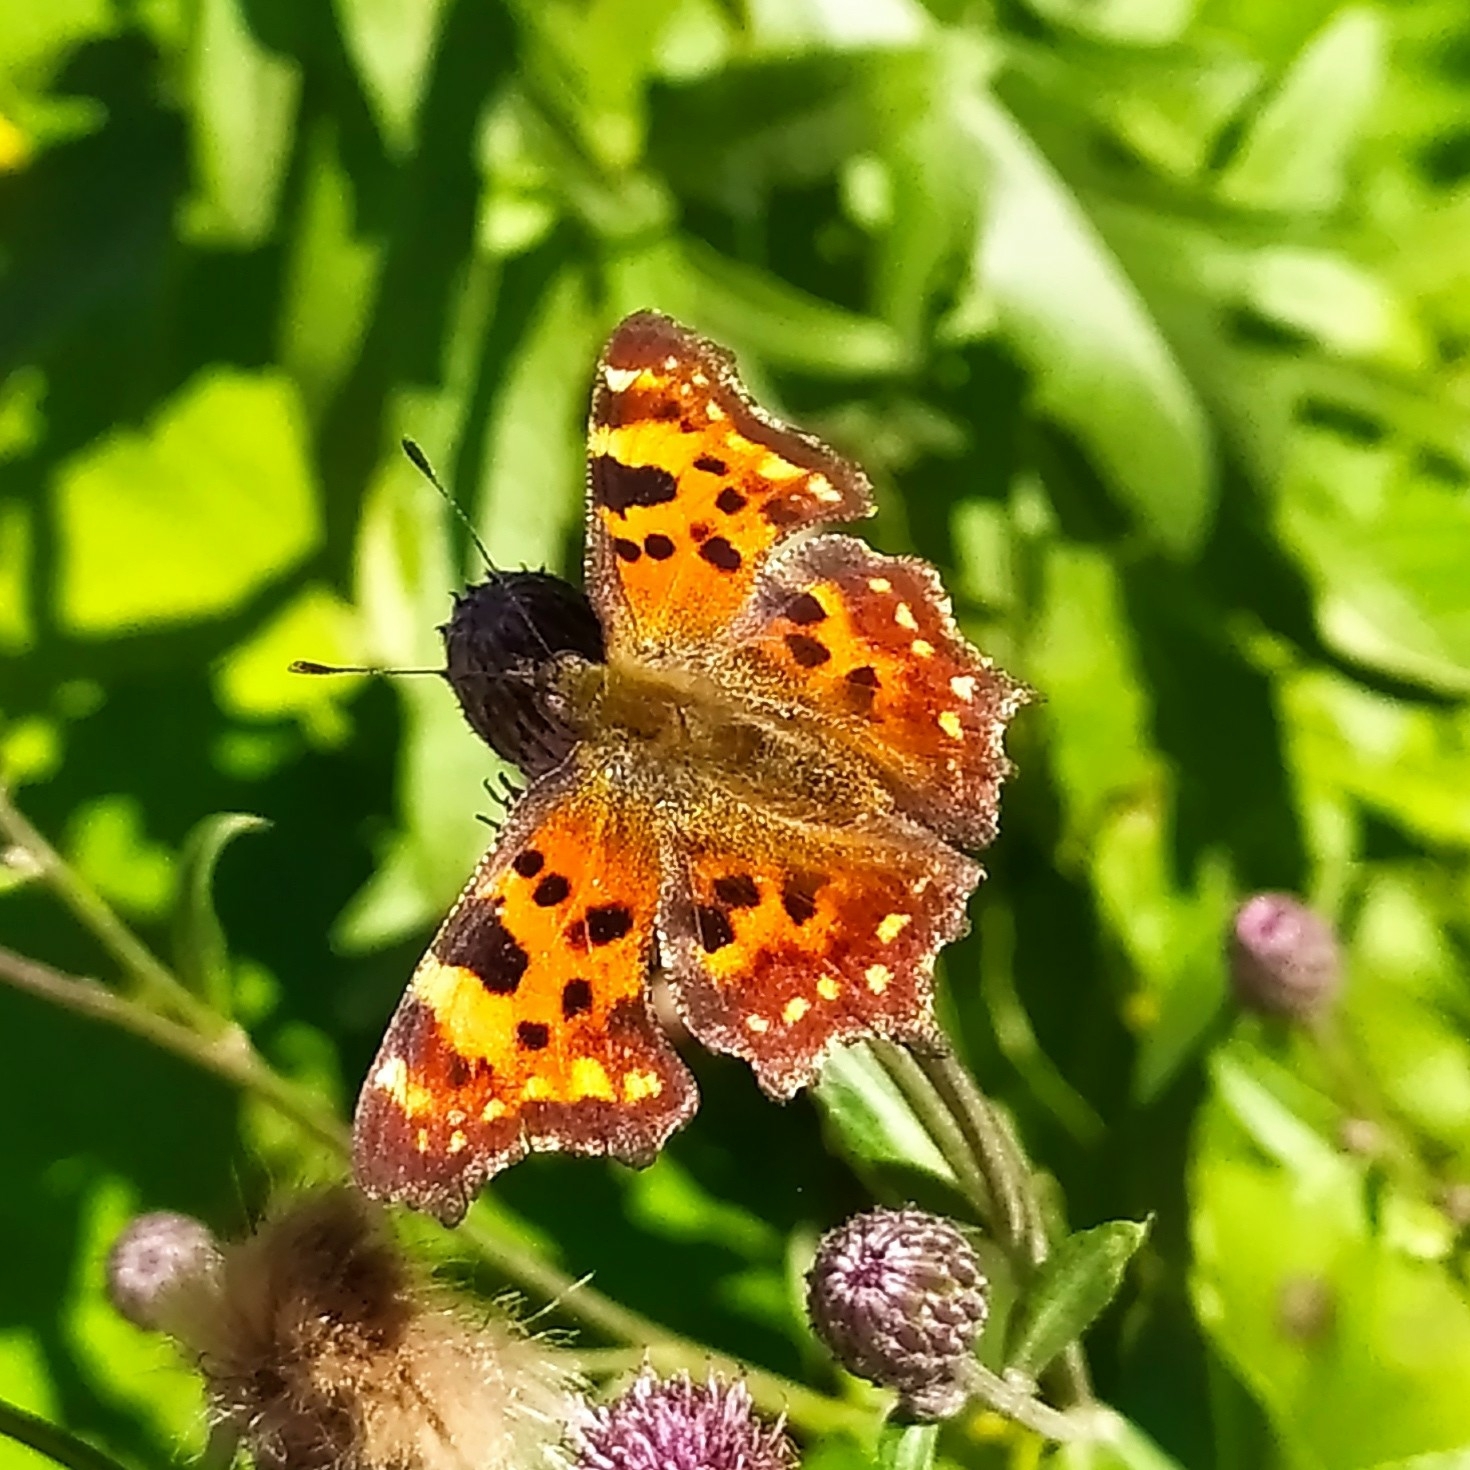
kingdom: Animalia
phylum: Arthropoda
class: Insecta
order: Lepidoptera
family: Nymphalidae
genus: Polygonia
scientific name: Polygonia c-album
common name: Comma
